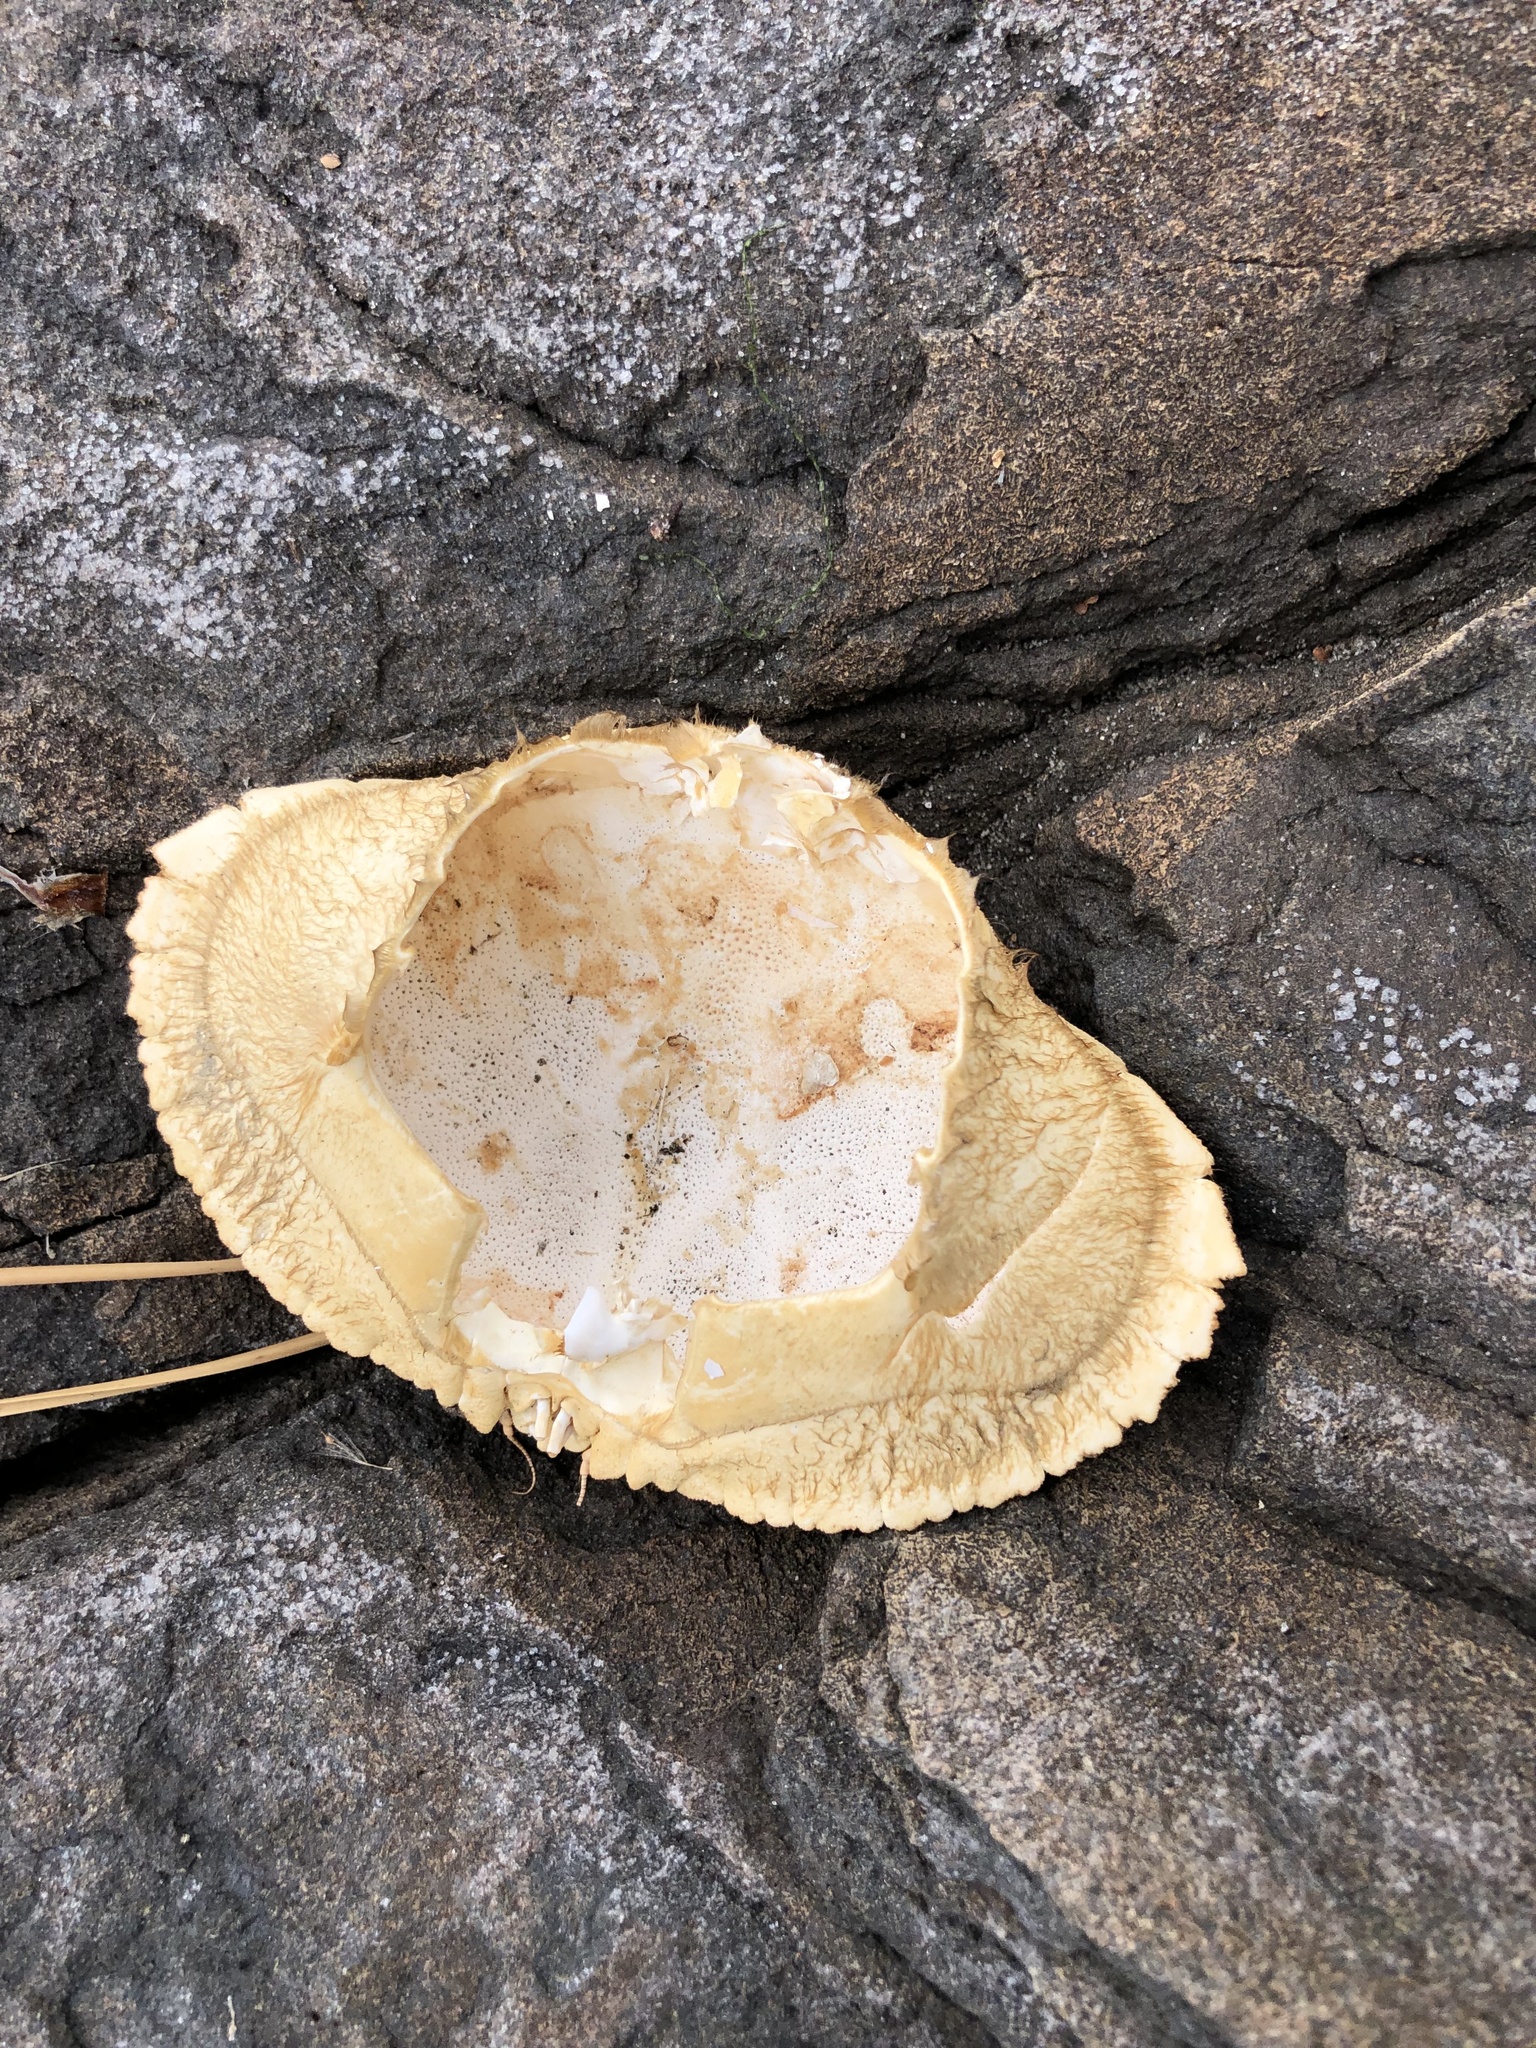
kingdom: Animalia
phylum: Arthropoda
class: Malacostraca
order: Decapoda
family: Cancridae
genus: Cancer
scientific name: Cancer borealis
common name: Jonah crab
